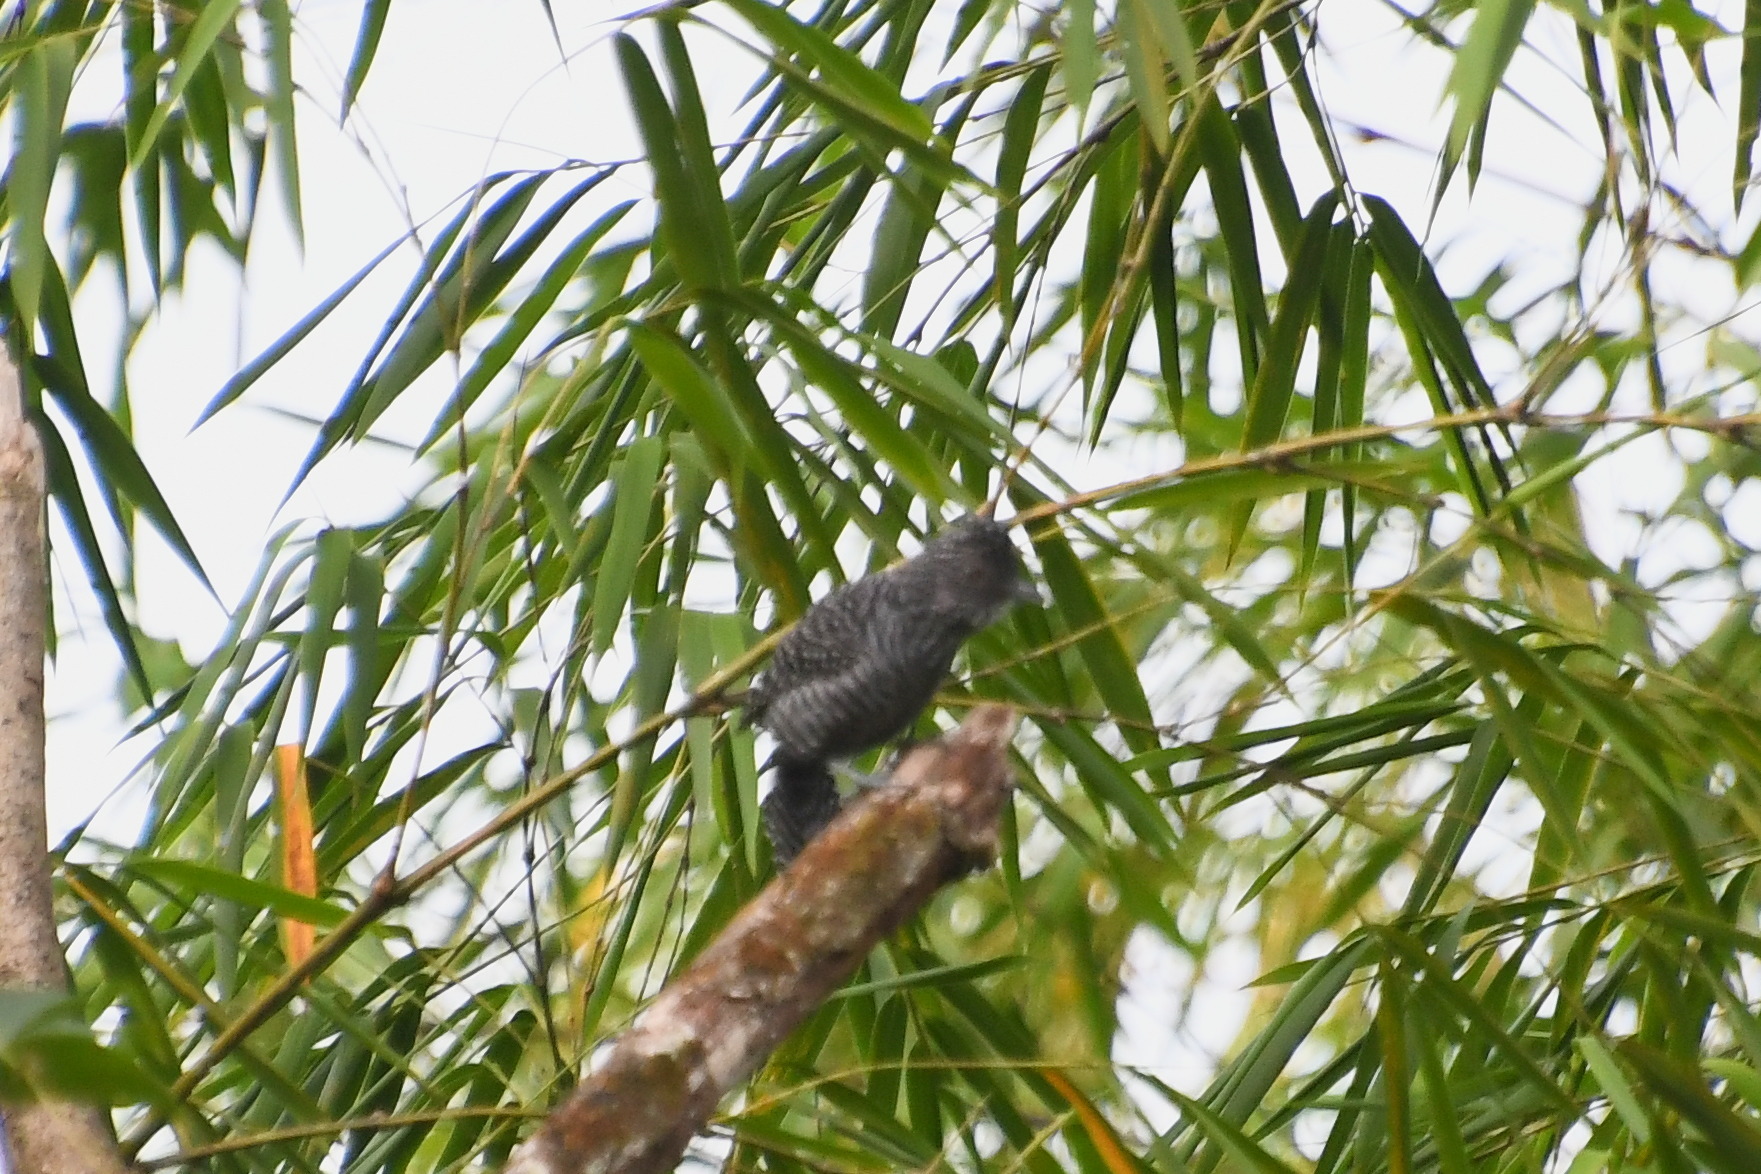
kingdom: Animalia
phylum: Chordata
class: Aves
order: Passeriformes
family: Thamnophilidae
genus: Thamnophilus
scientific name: Thamnophilus multistriatus
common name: Bar-crested antshrike
